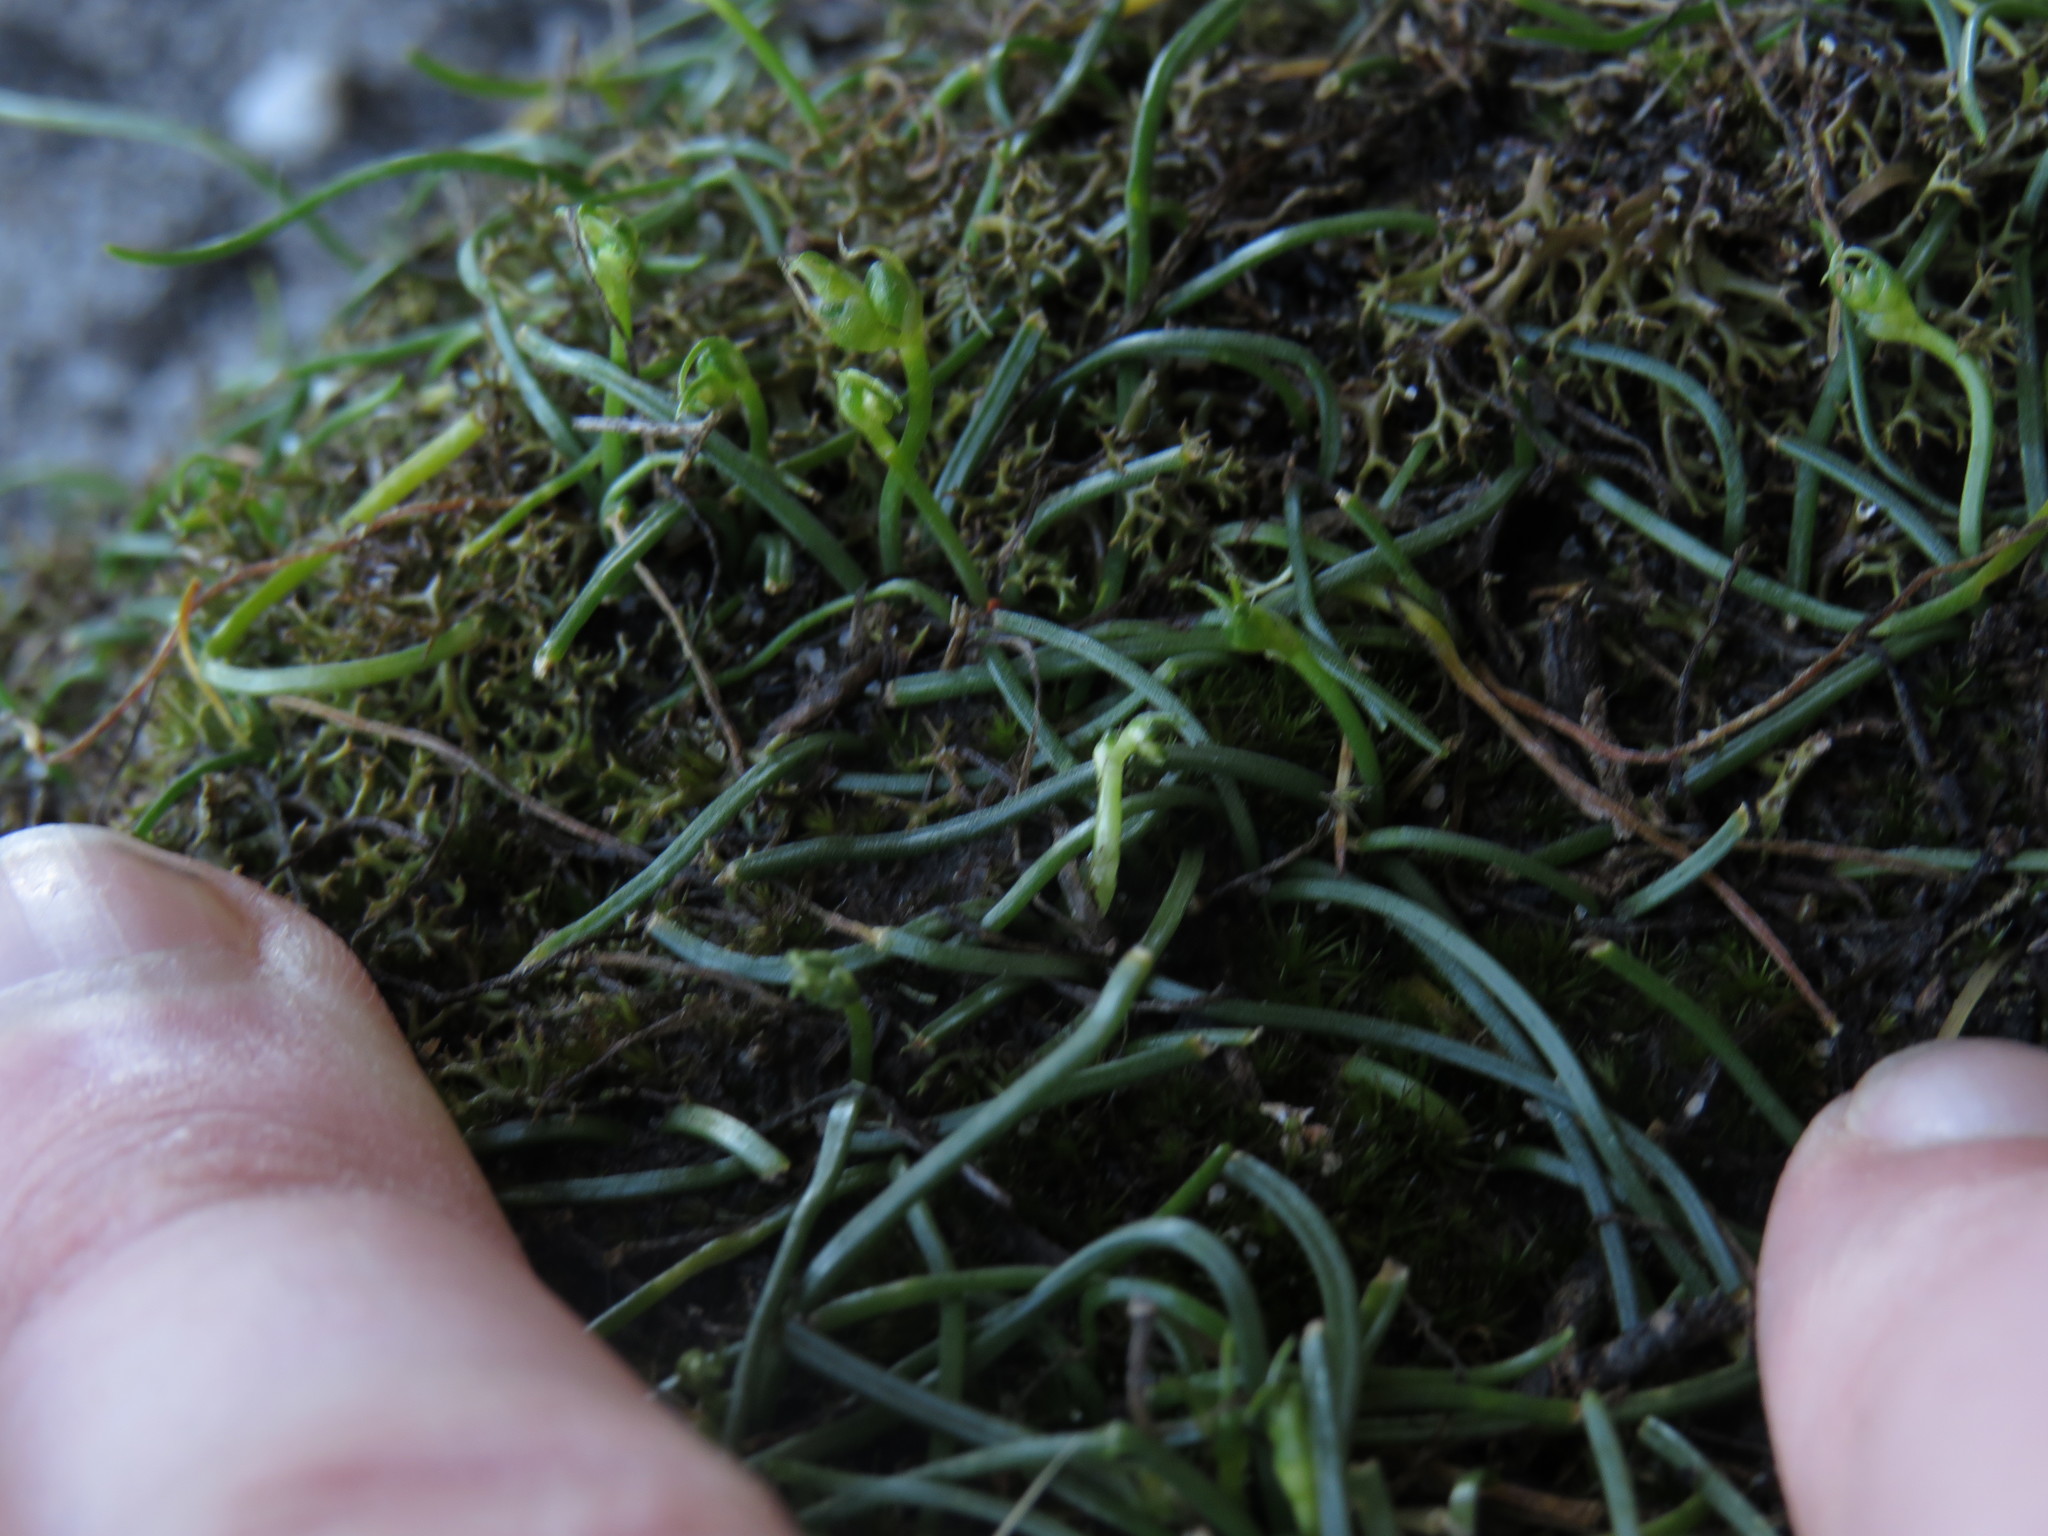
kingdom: Plantae
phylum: Tracheophyta
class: Liliopsida
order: Asparagales
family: Asparagaceae
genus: Ornithogalum
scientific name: Ornithogalum niveum
